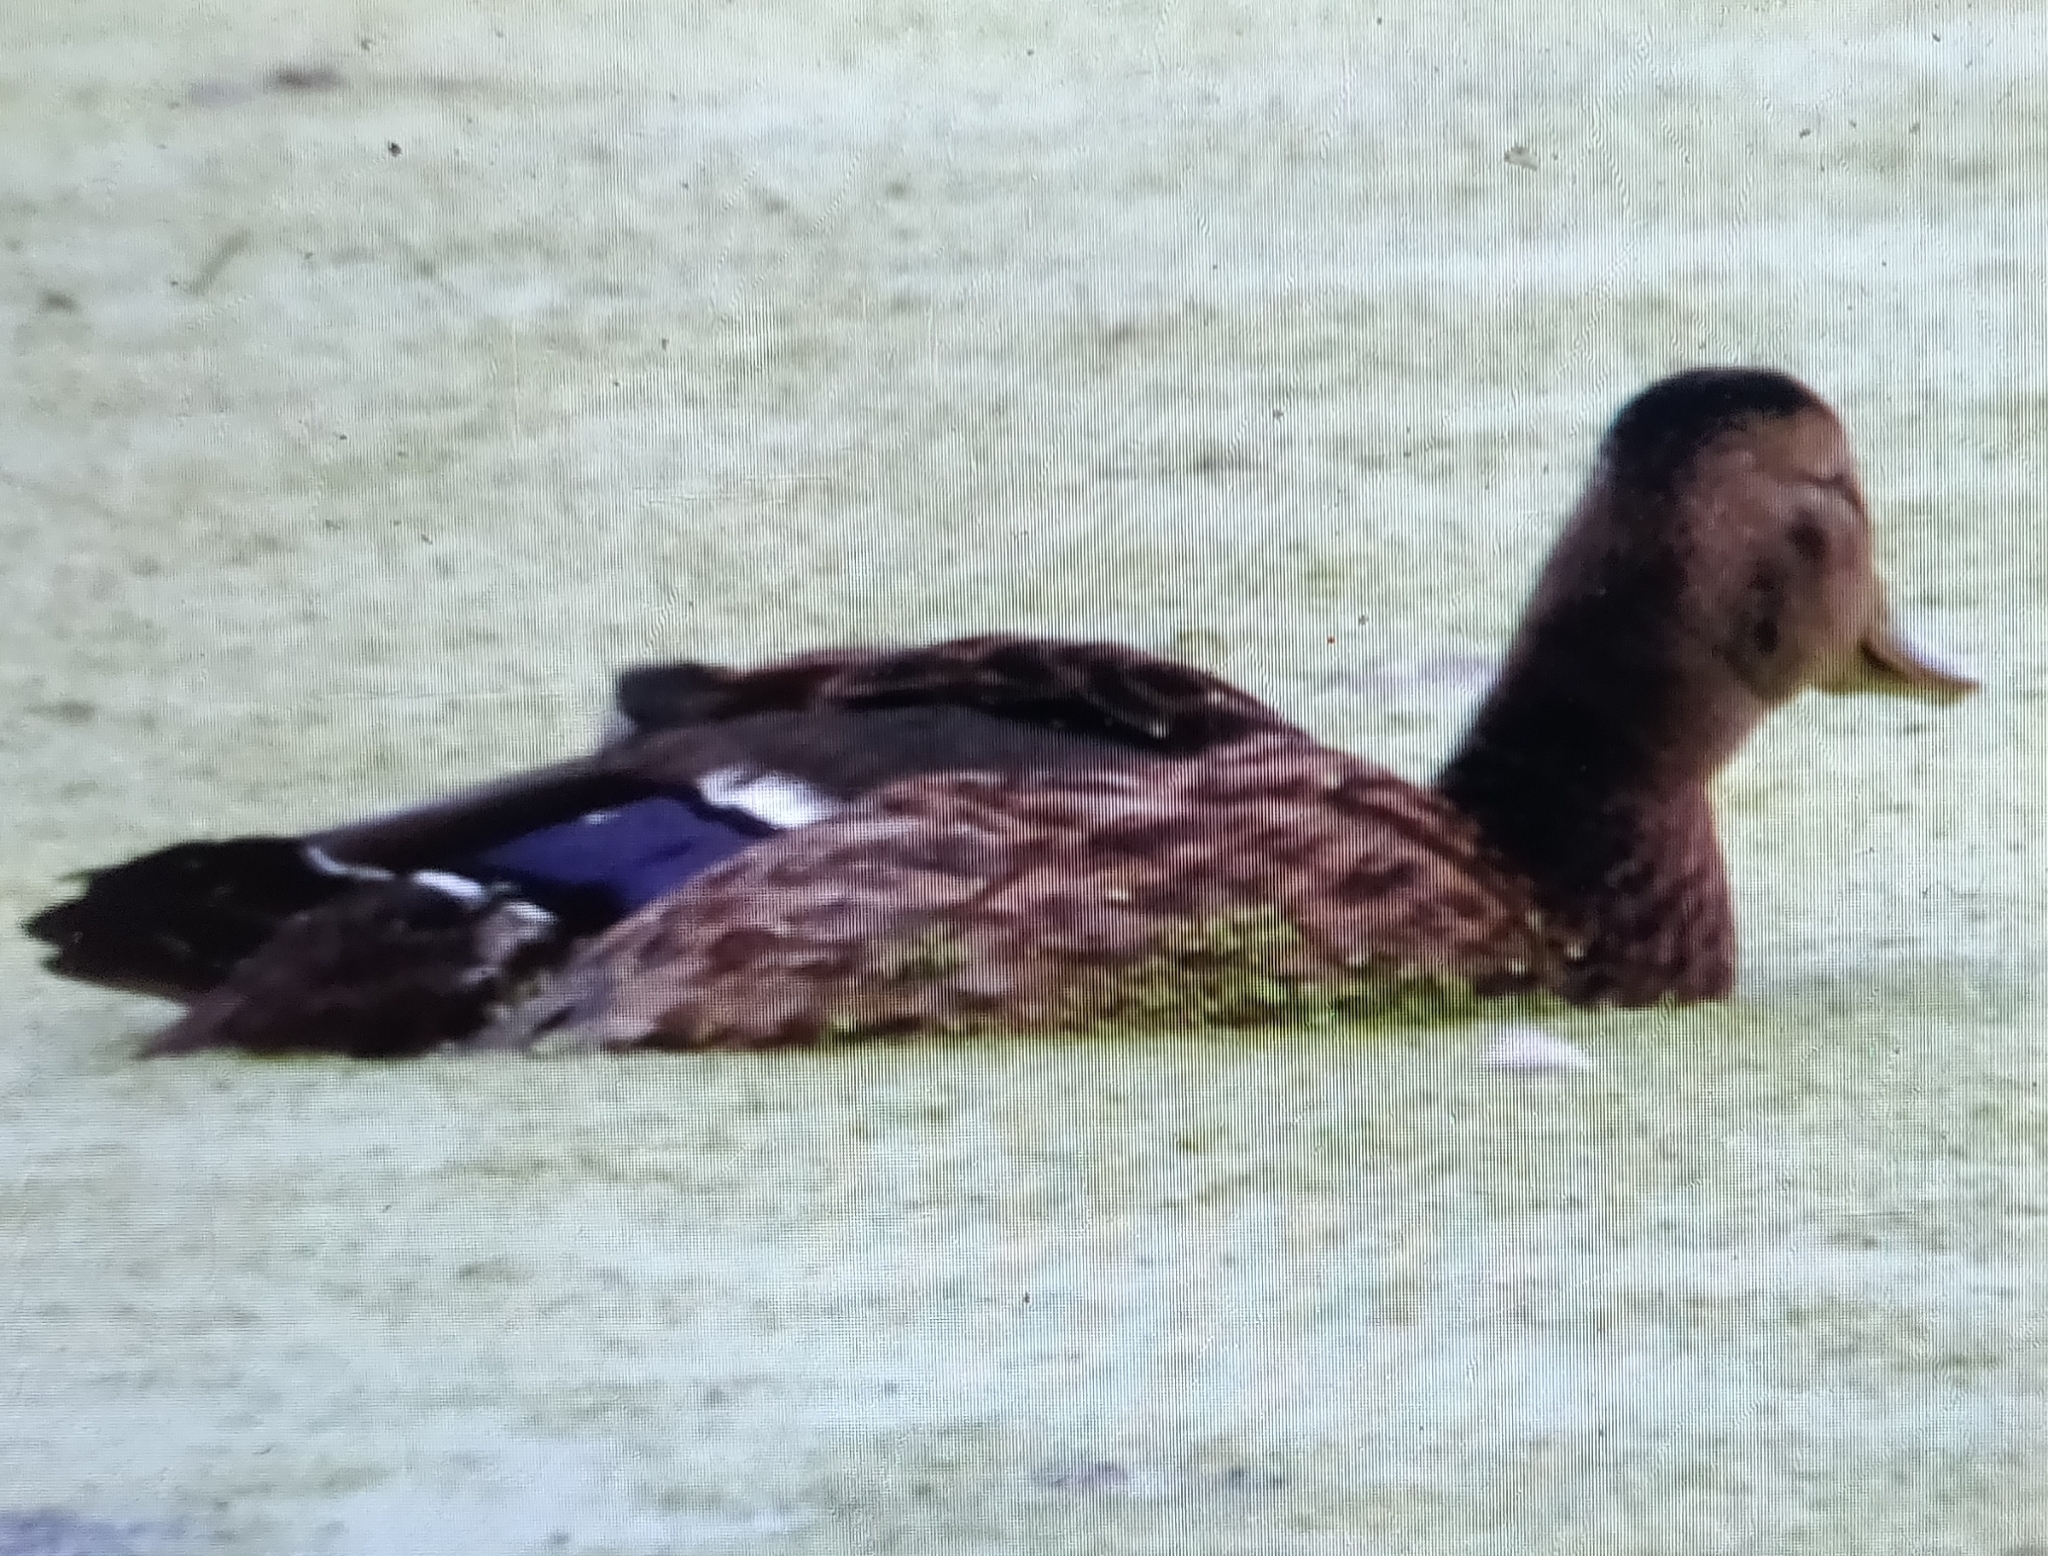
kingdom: Animalia
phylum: Chordata
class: Aves
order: Anseriformes
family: Anatidae
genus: Anas
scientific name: Anas platyrhynchos
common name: Mallard
